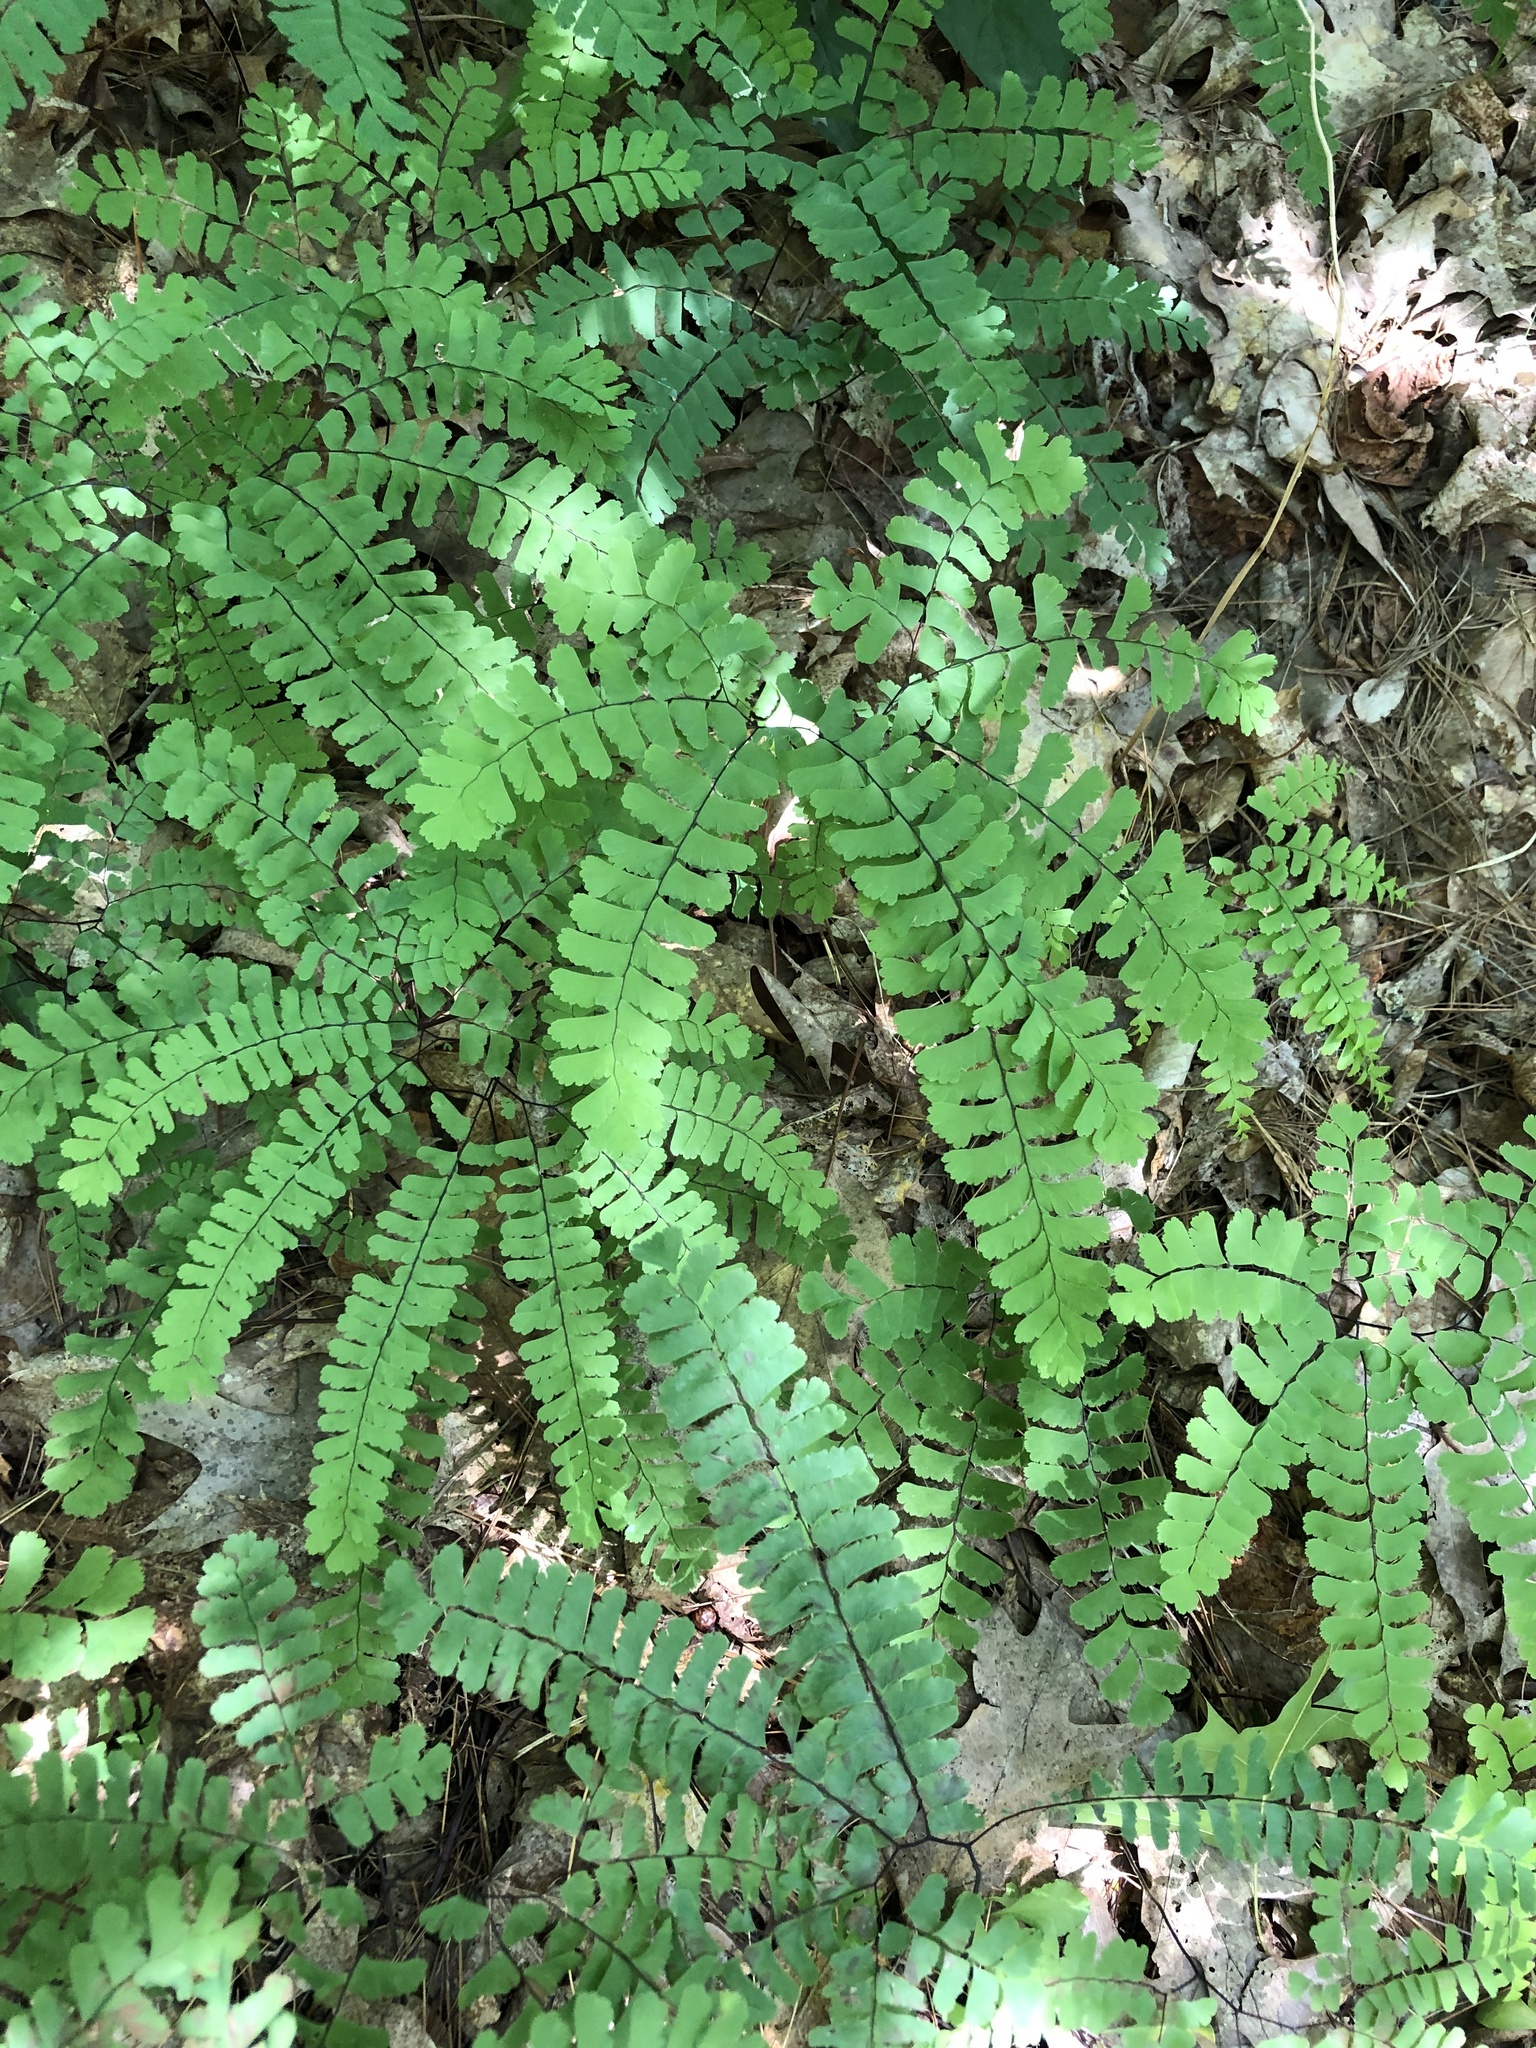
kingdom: Plantae
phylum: Tracheophyta
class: Polypodiopsida
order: Polypodiales
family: Pteridaceae
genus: Adiantum
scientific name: Adiantum pedatum
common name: Five-finger fern
